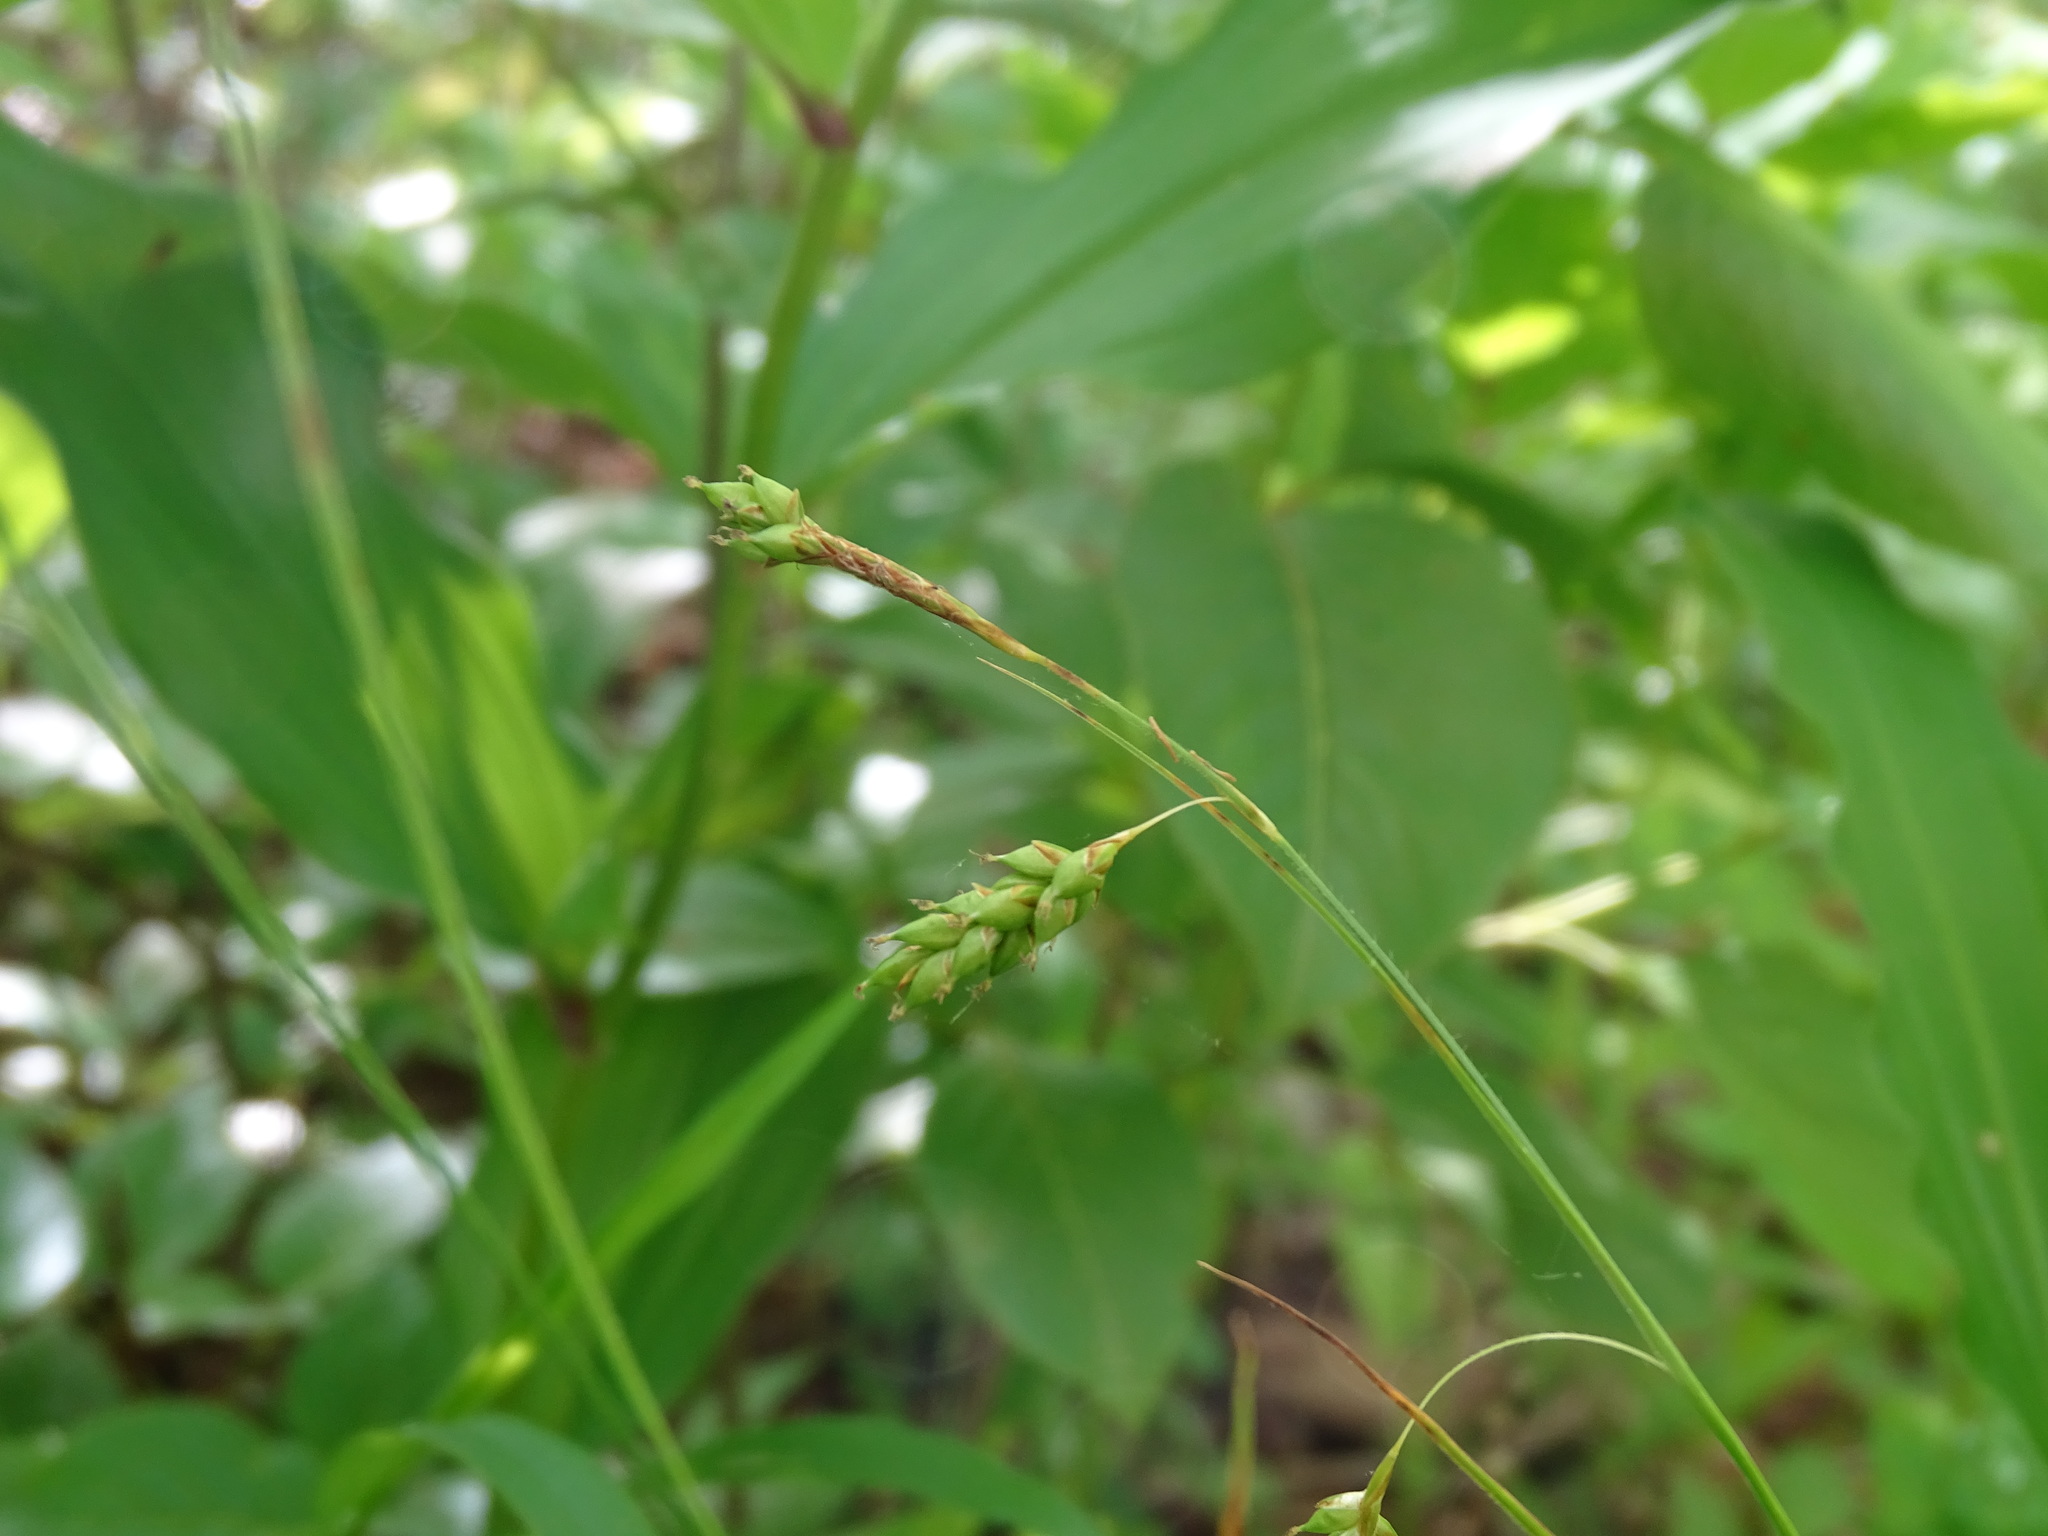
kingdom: Plantae
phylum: Tracheophyta
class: Liliopsida
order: Poales
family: Cyperaceae
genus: Carex
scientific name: Carex formosa
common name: Awnless graceful sedge
